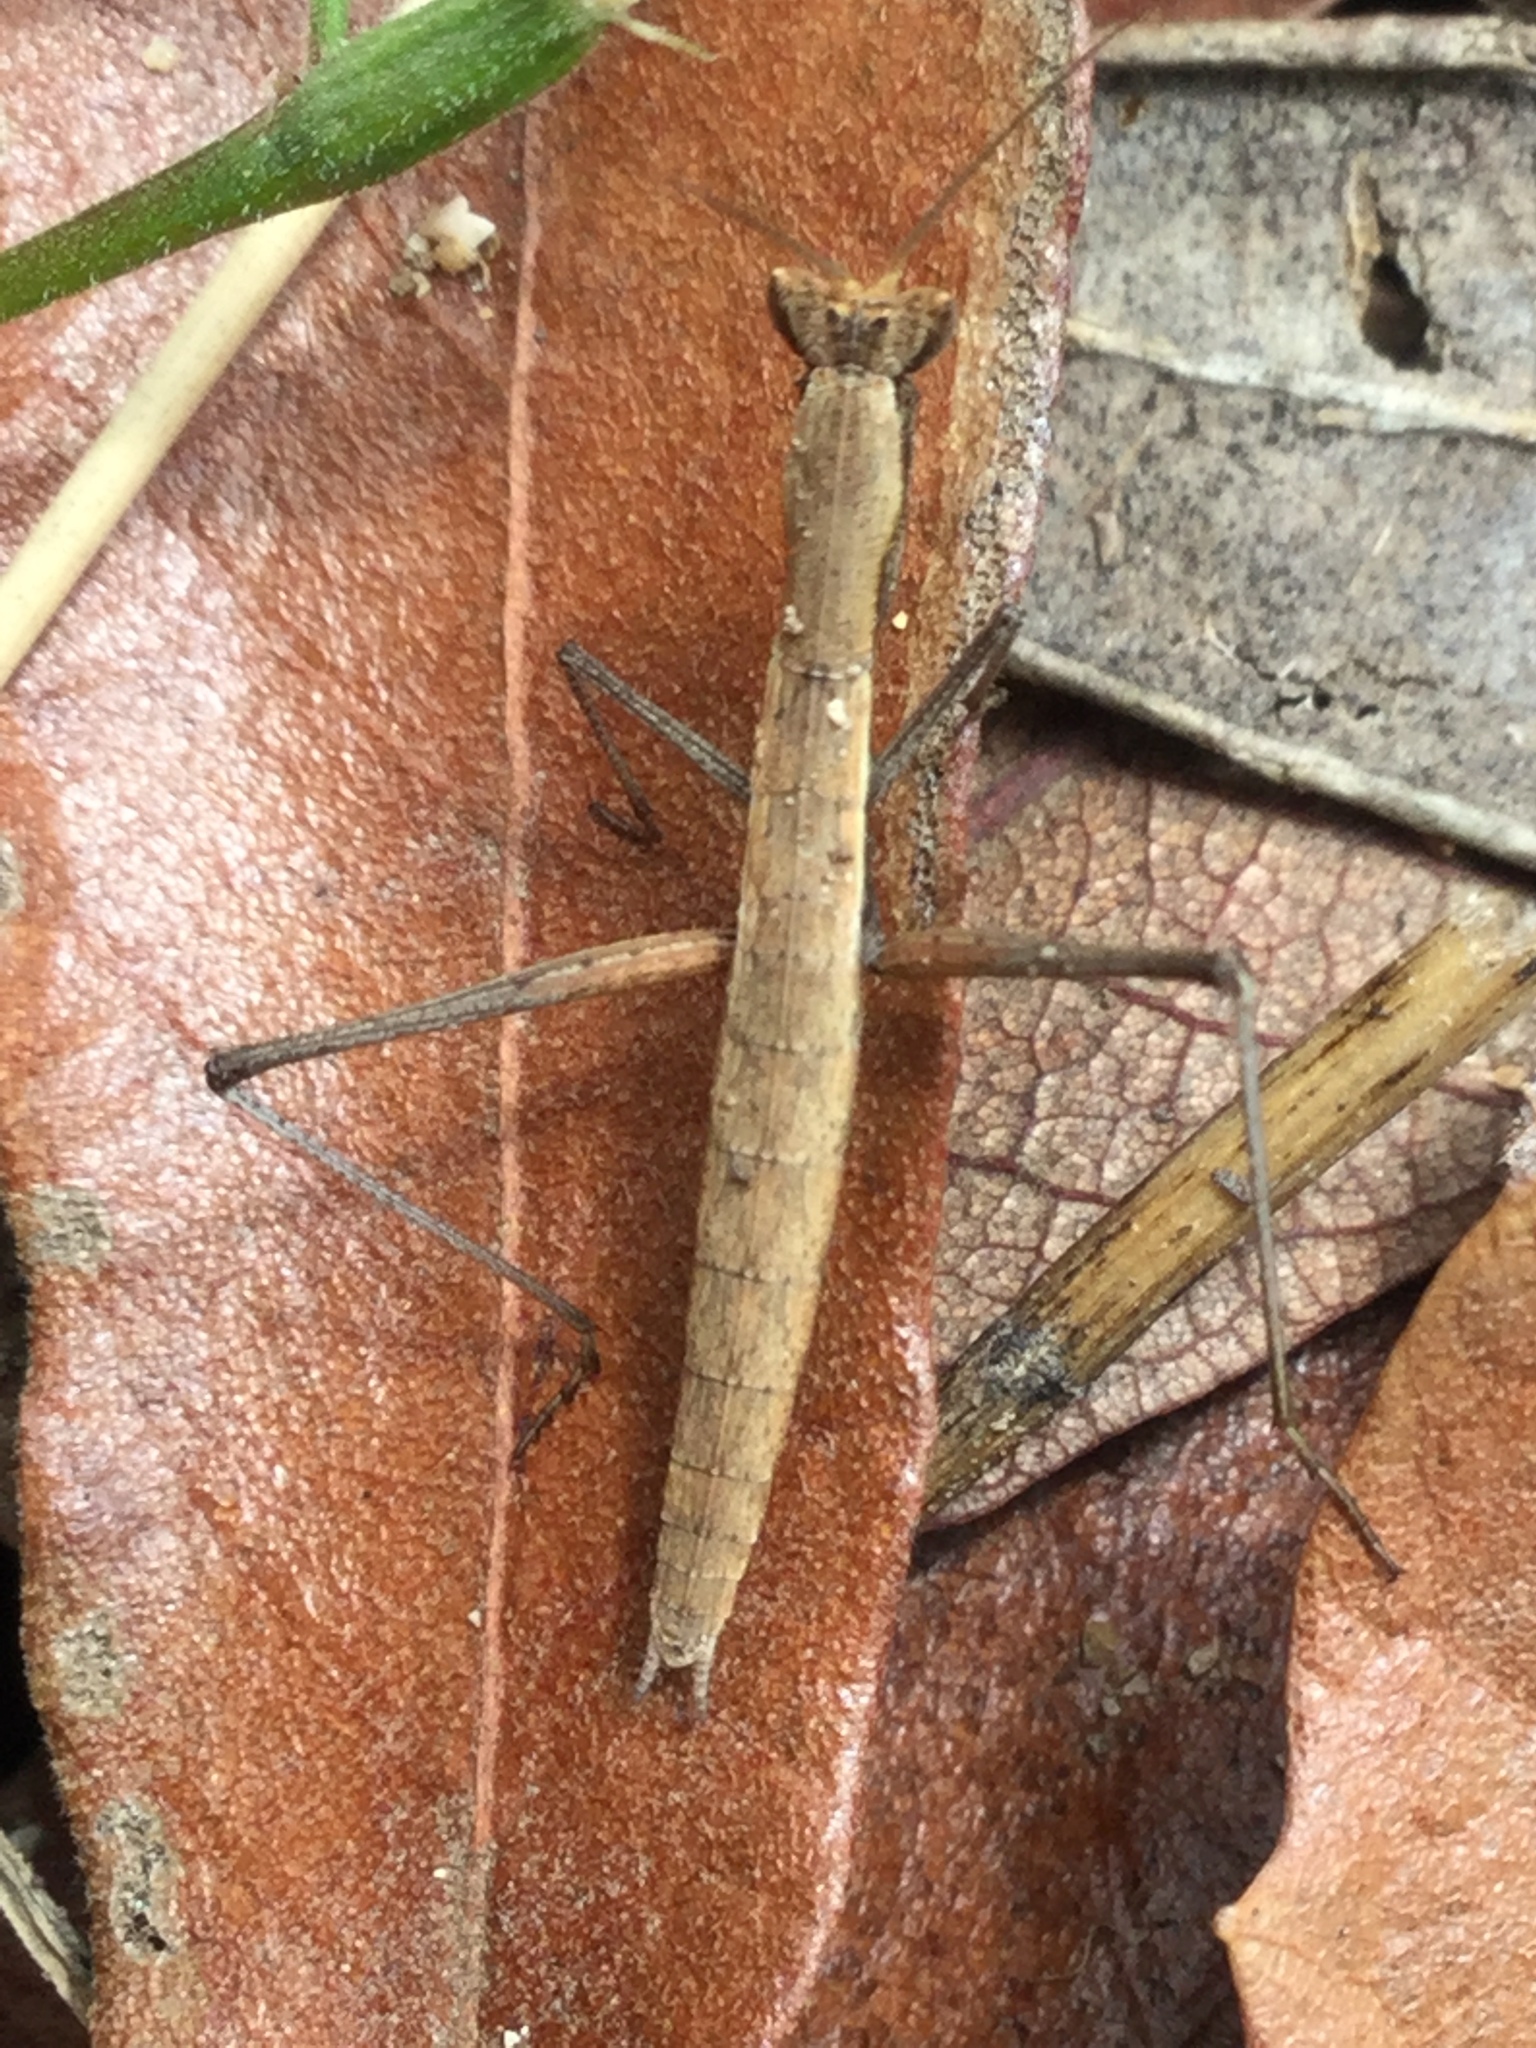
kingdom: Animalia
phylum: Arthropoda
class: Insecta
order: Mantodea
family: Amelidae
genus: Yersiniops
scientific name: Yersiniops solitarius
